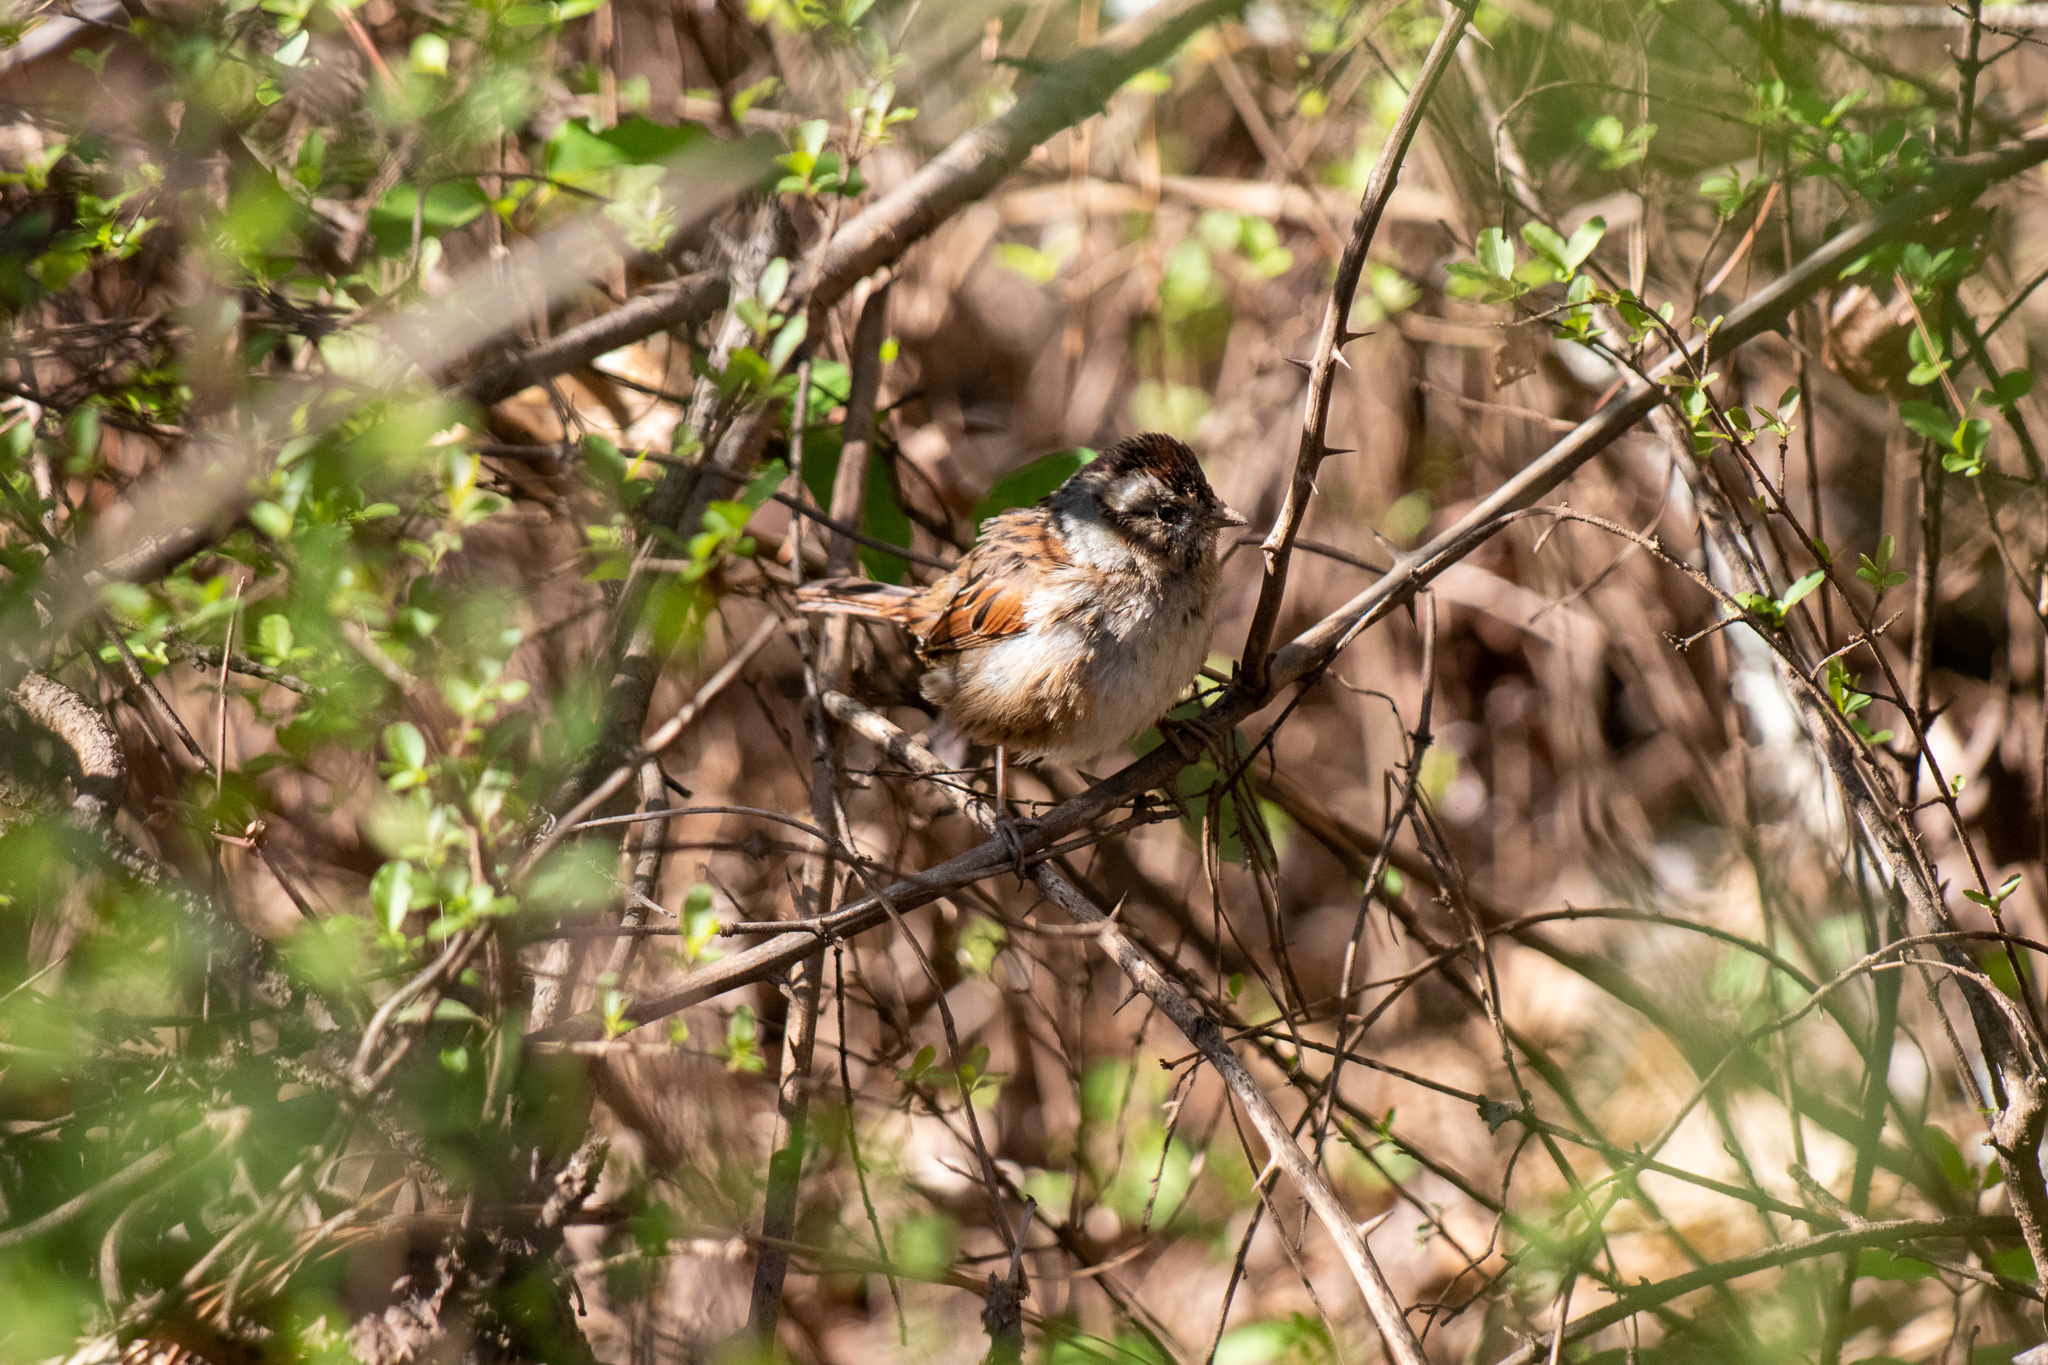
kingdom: Animalia
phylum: Chordata
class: Aves
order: Passeriformes
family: Passerellidae
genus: Melospiza
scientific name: Melospiza georgiana
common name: Swamp sparrow
